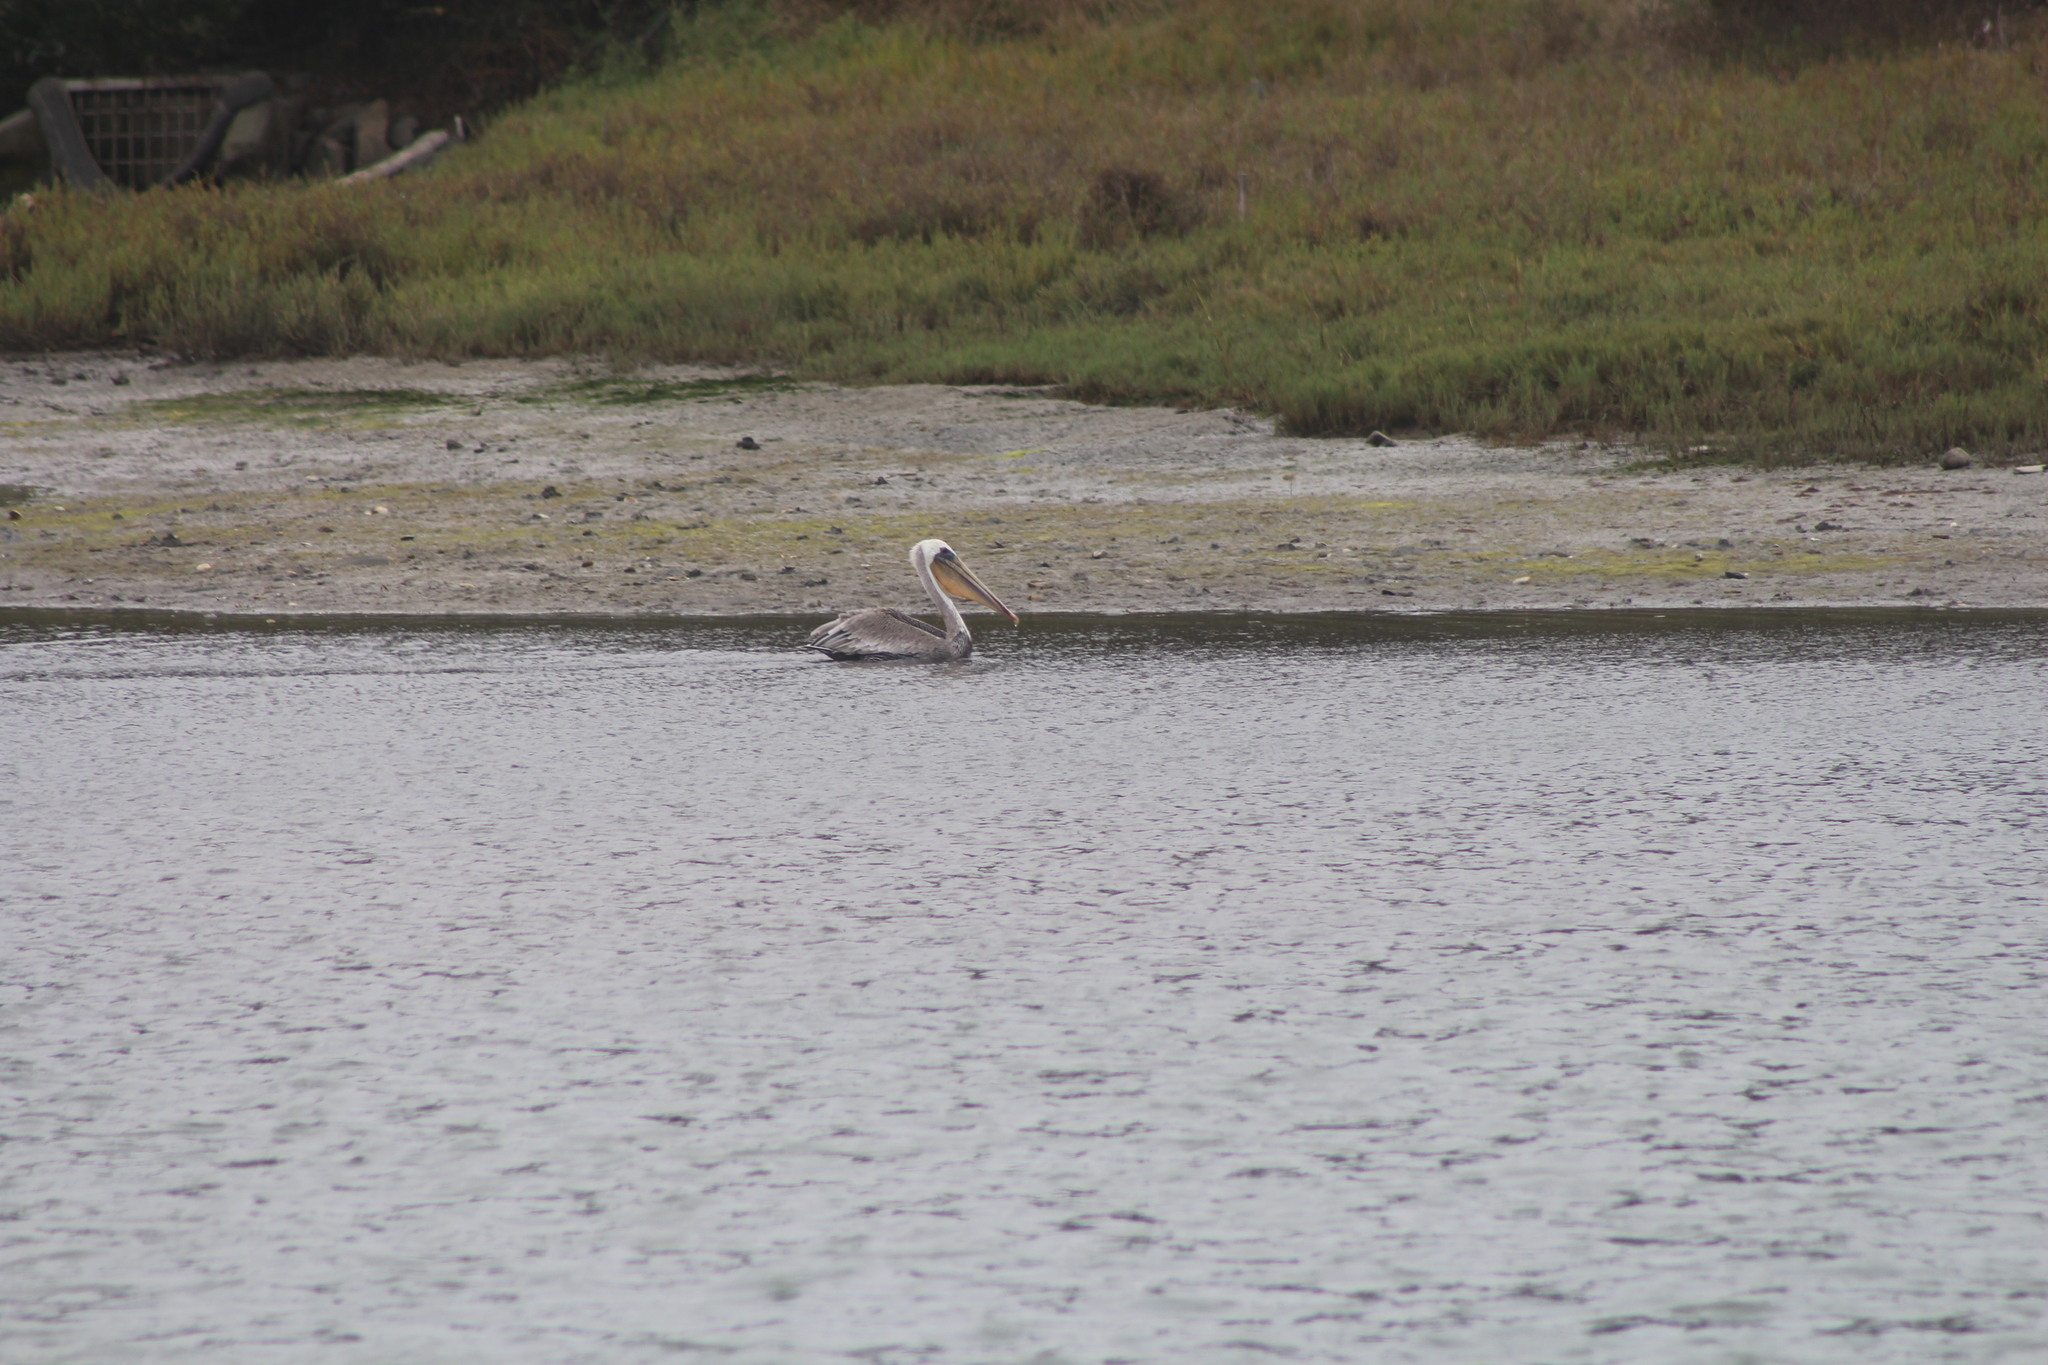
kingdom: Animalia
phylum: Chordata
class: Aves
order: Pelecaniformes
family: Pelecanidae
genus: Pelecanus
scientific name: Pelecanus occidentalis
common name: Brown pelican
